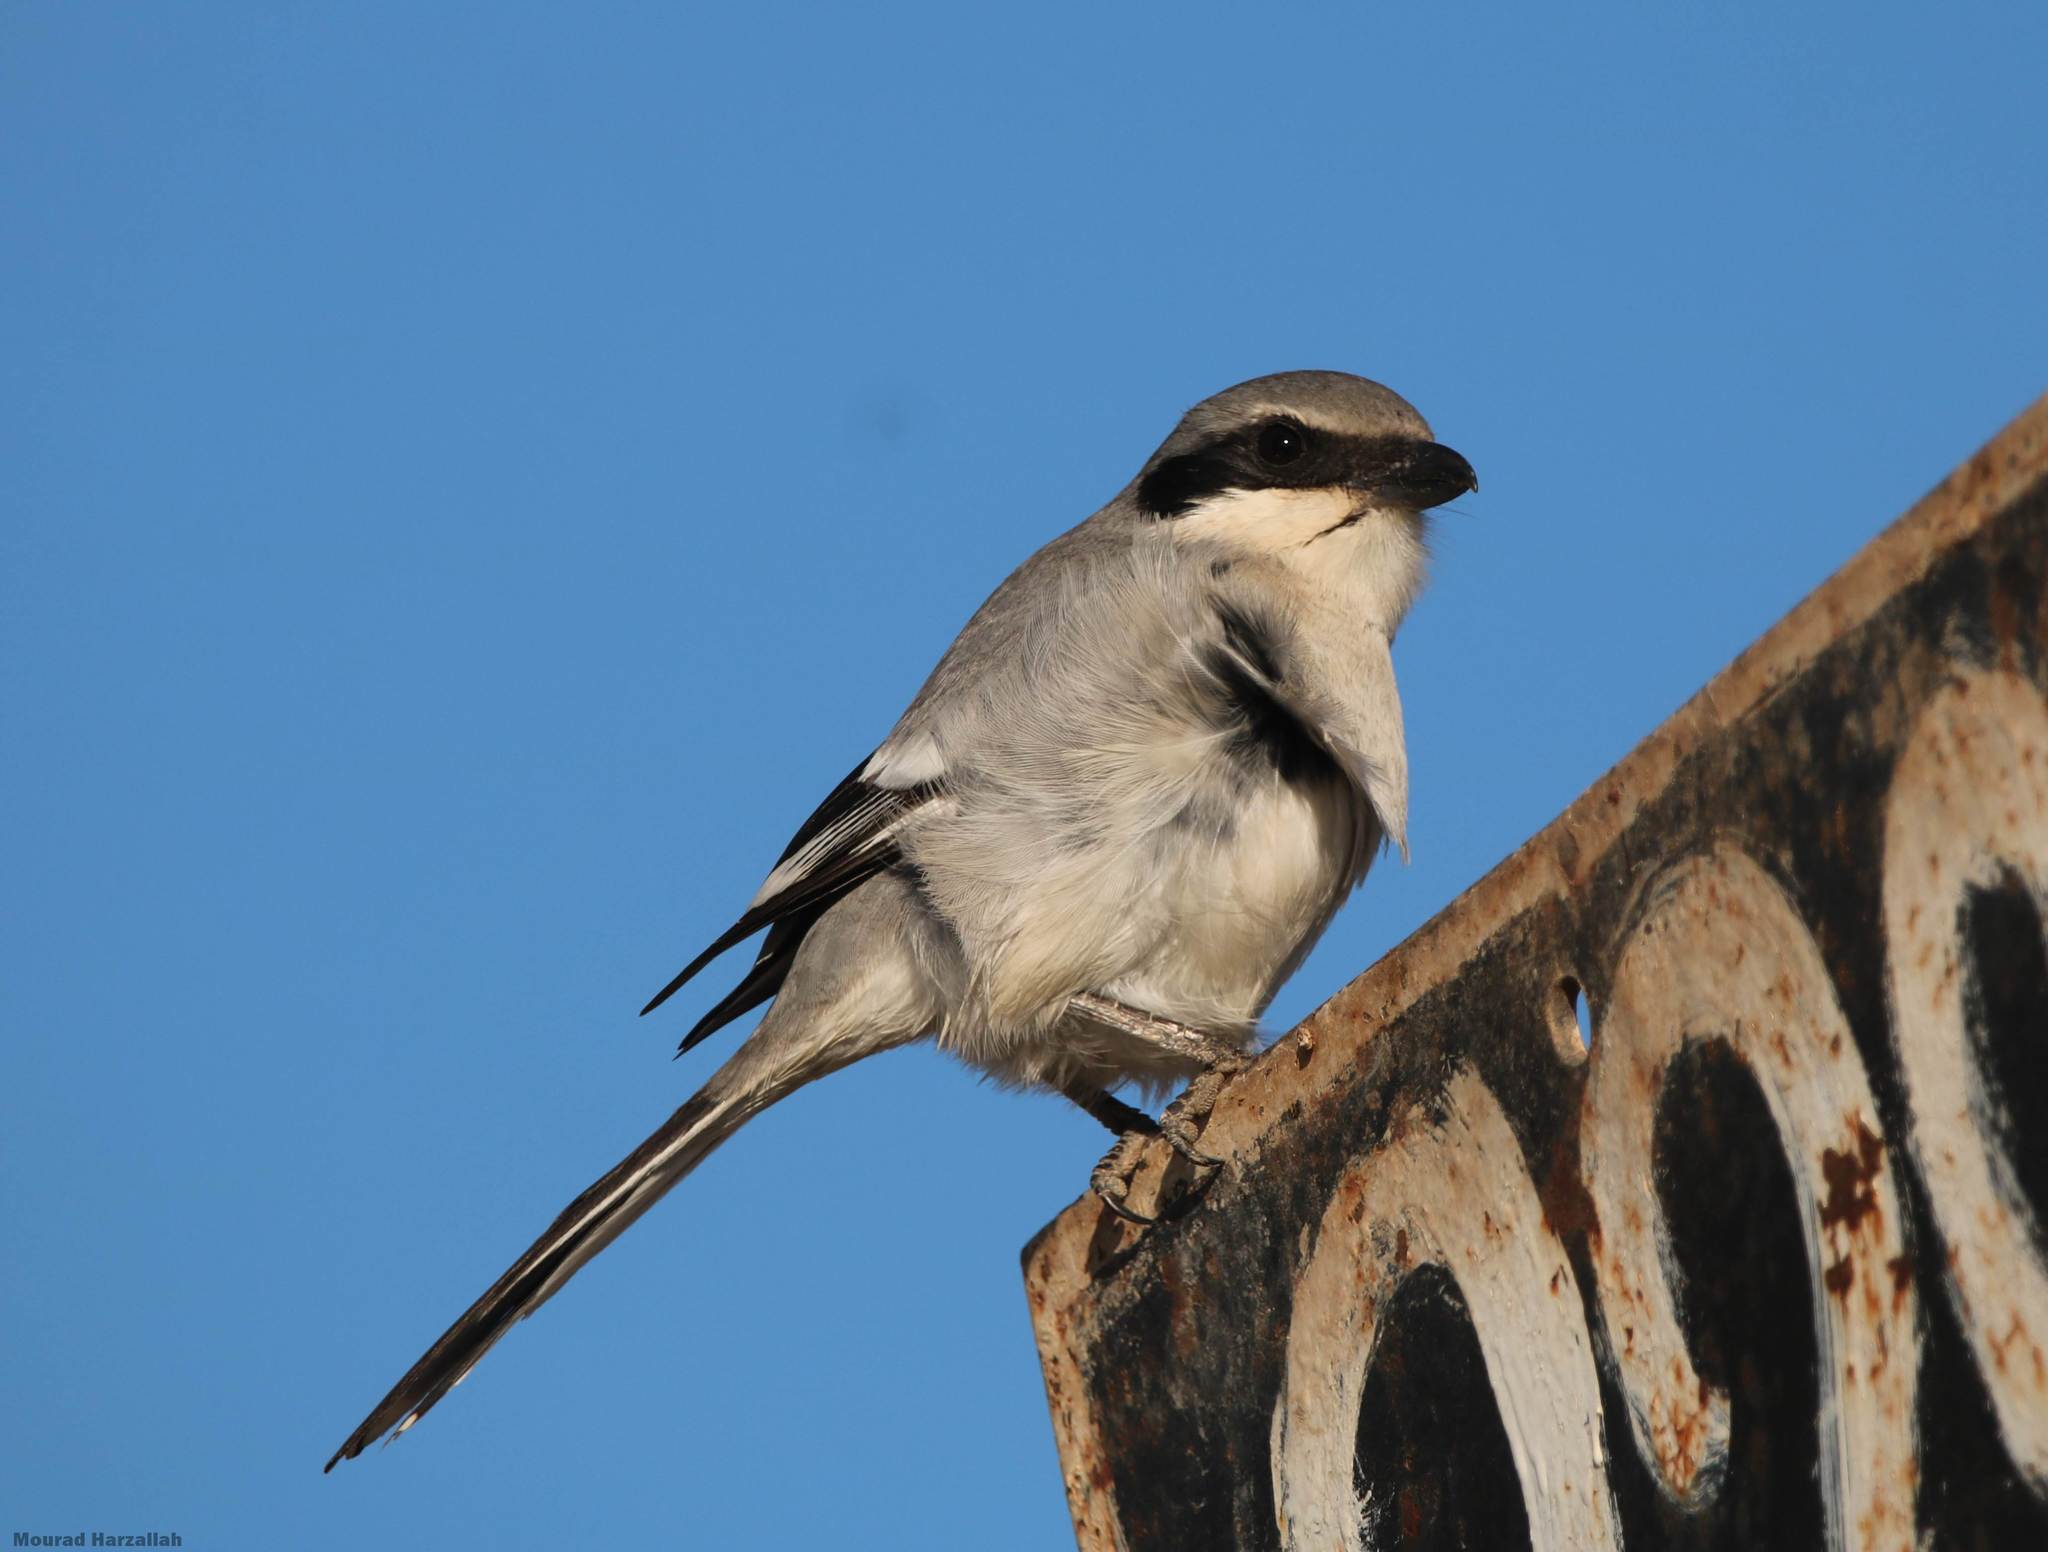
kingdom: Animalia
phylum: Chordata
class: Aves
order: Passeriformes
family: Laniidae
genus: Lanius
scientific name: Lanius excubitor
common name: Great grey shrike
